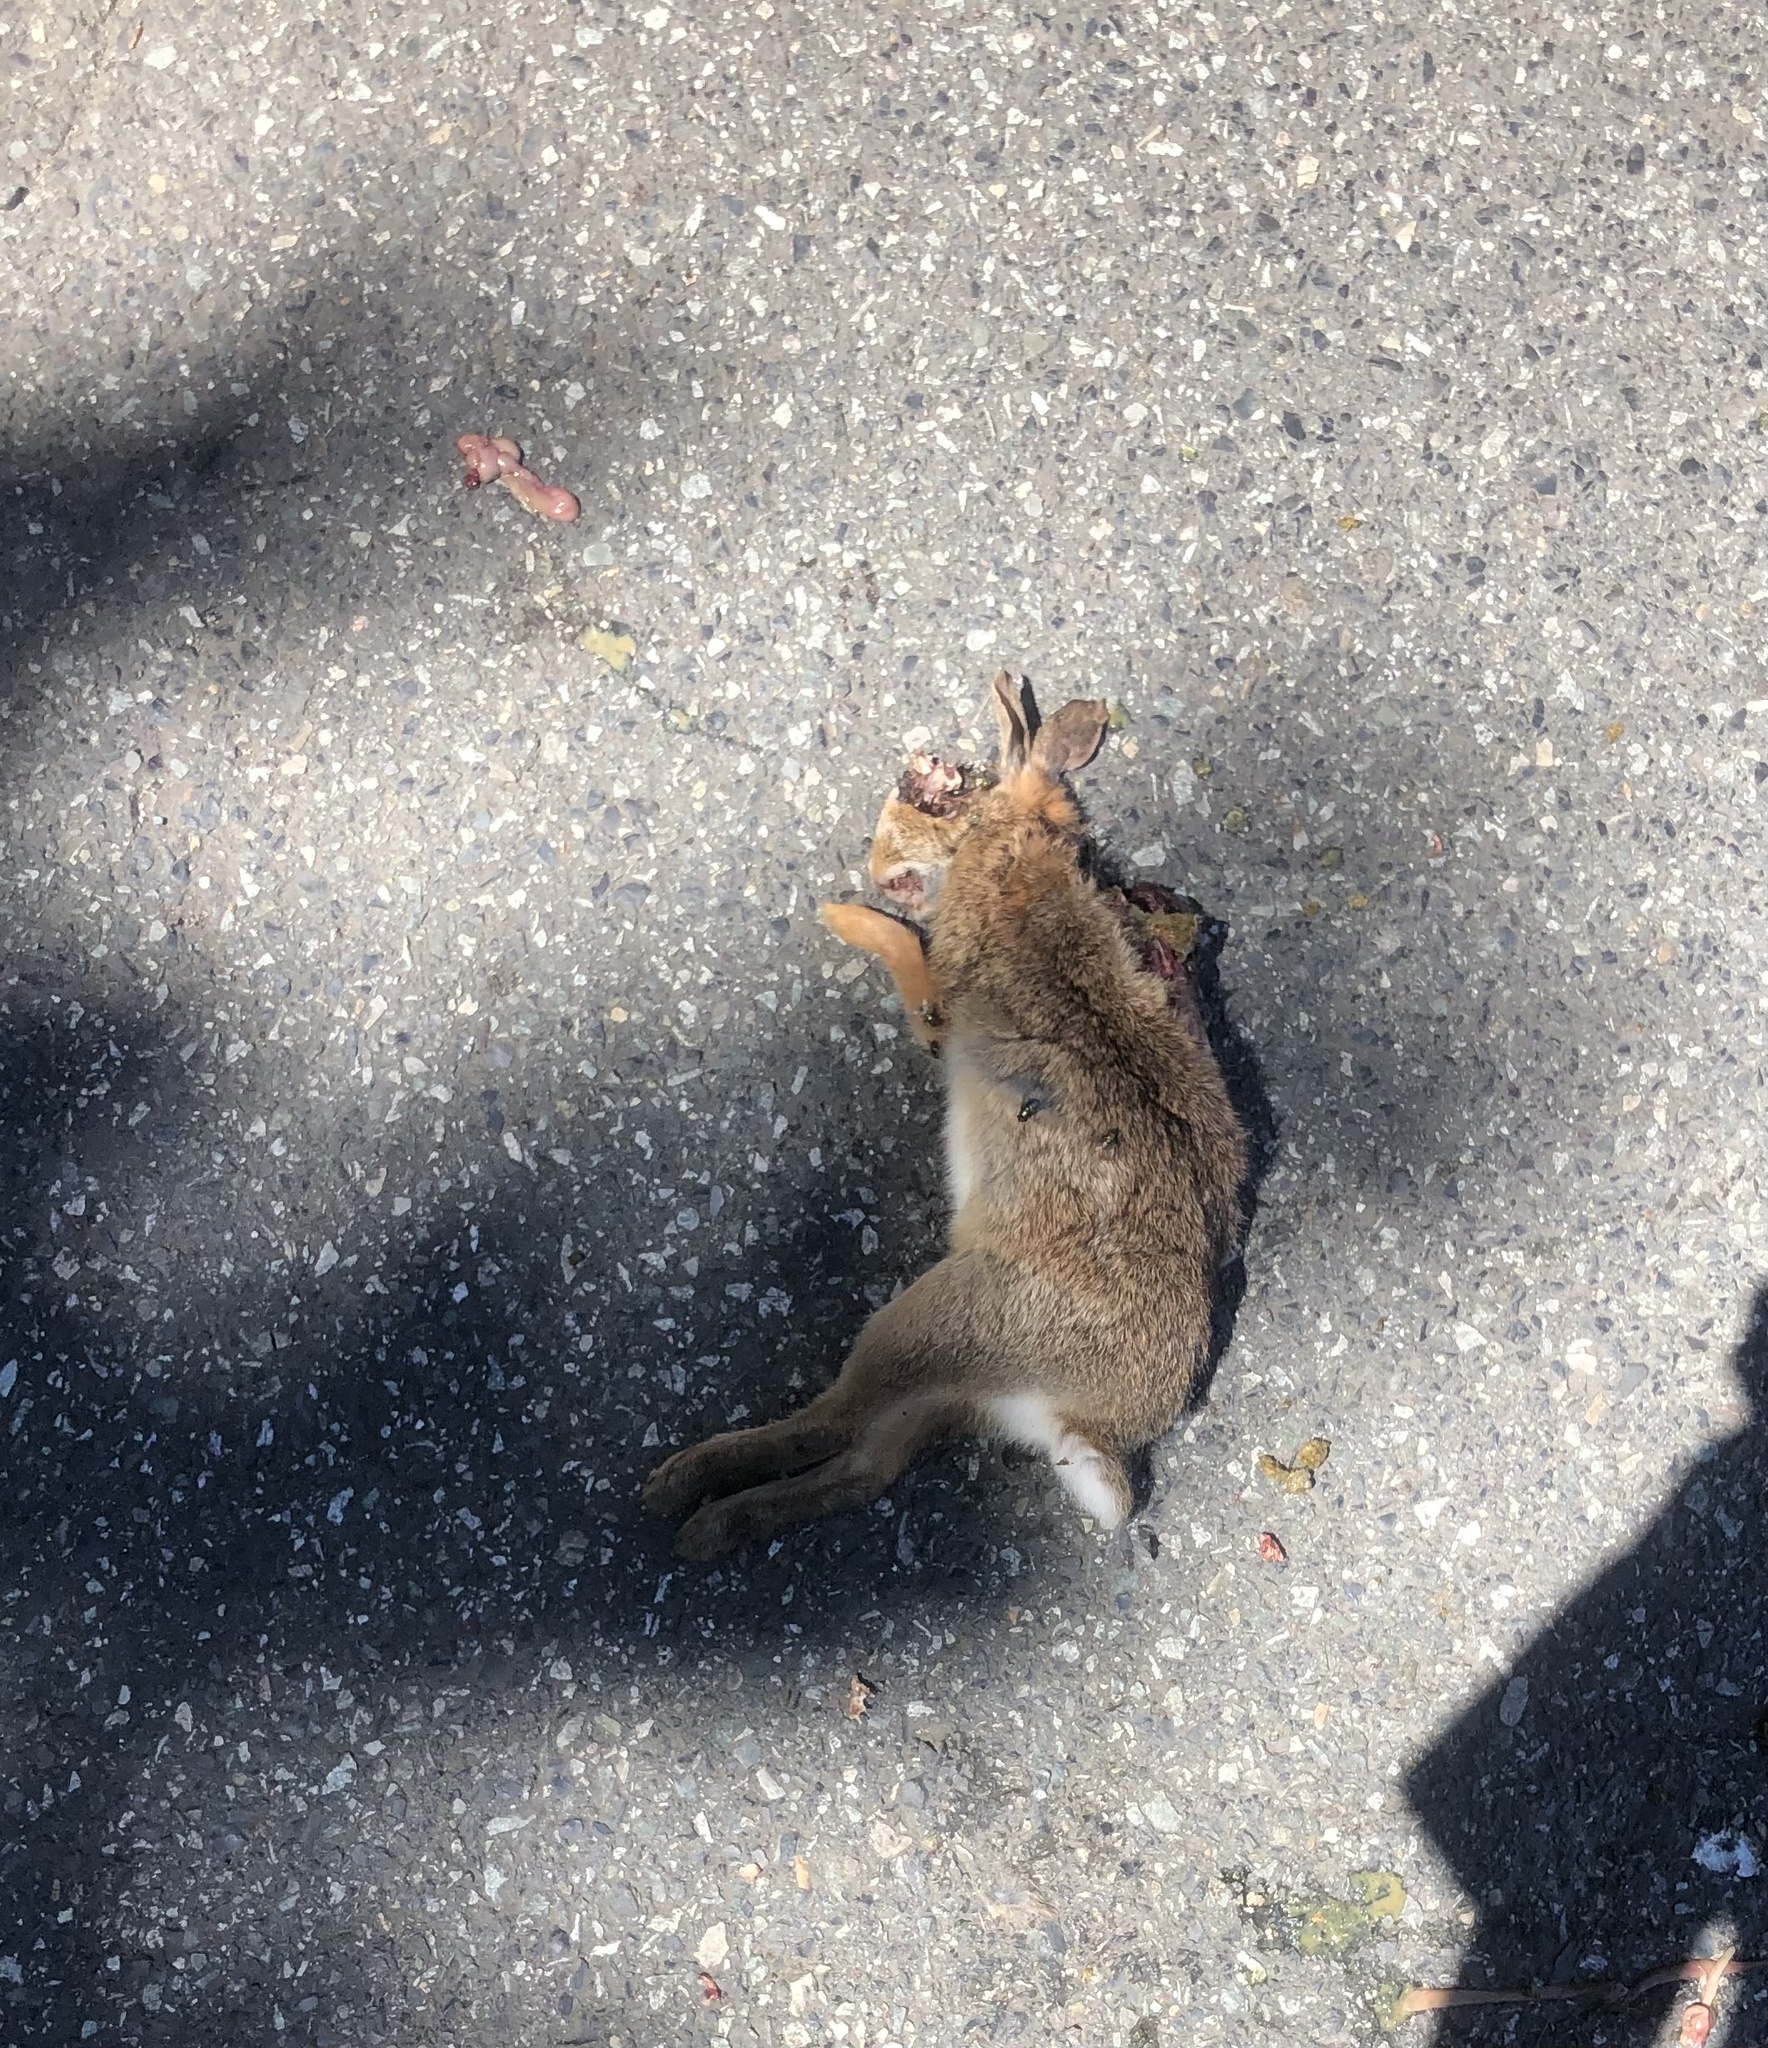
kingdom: Animalia
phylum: Chordata
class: Mammalia
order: Lagomorpha
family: Leporidae
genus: Sylvilagus
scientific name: Sylvilagus floridanus
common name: Eastern cottontail
